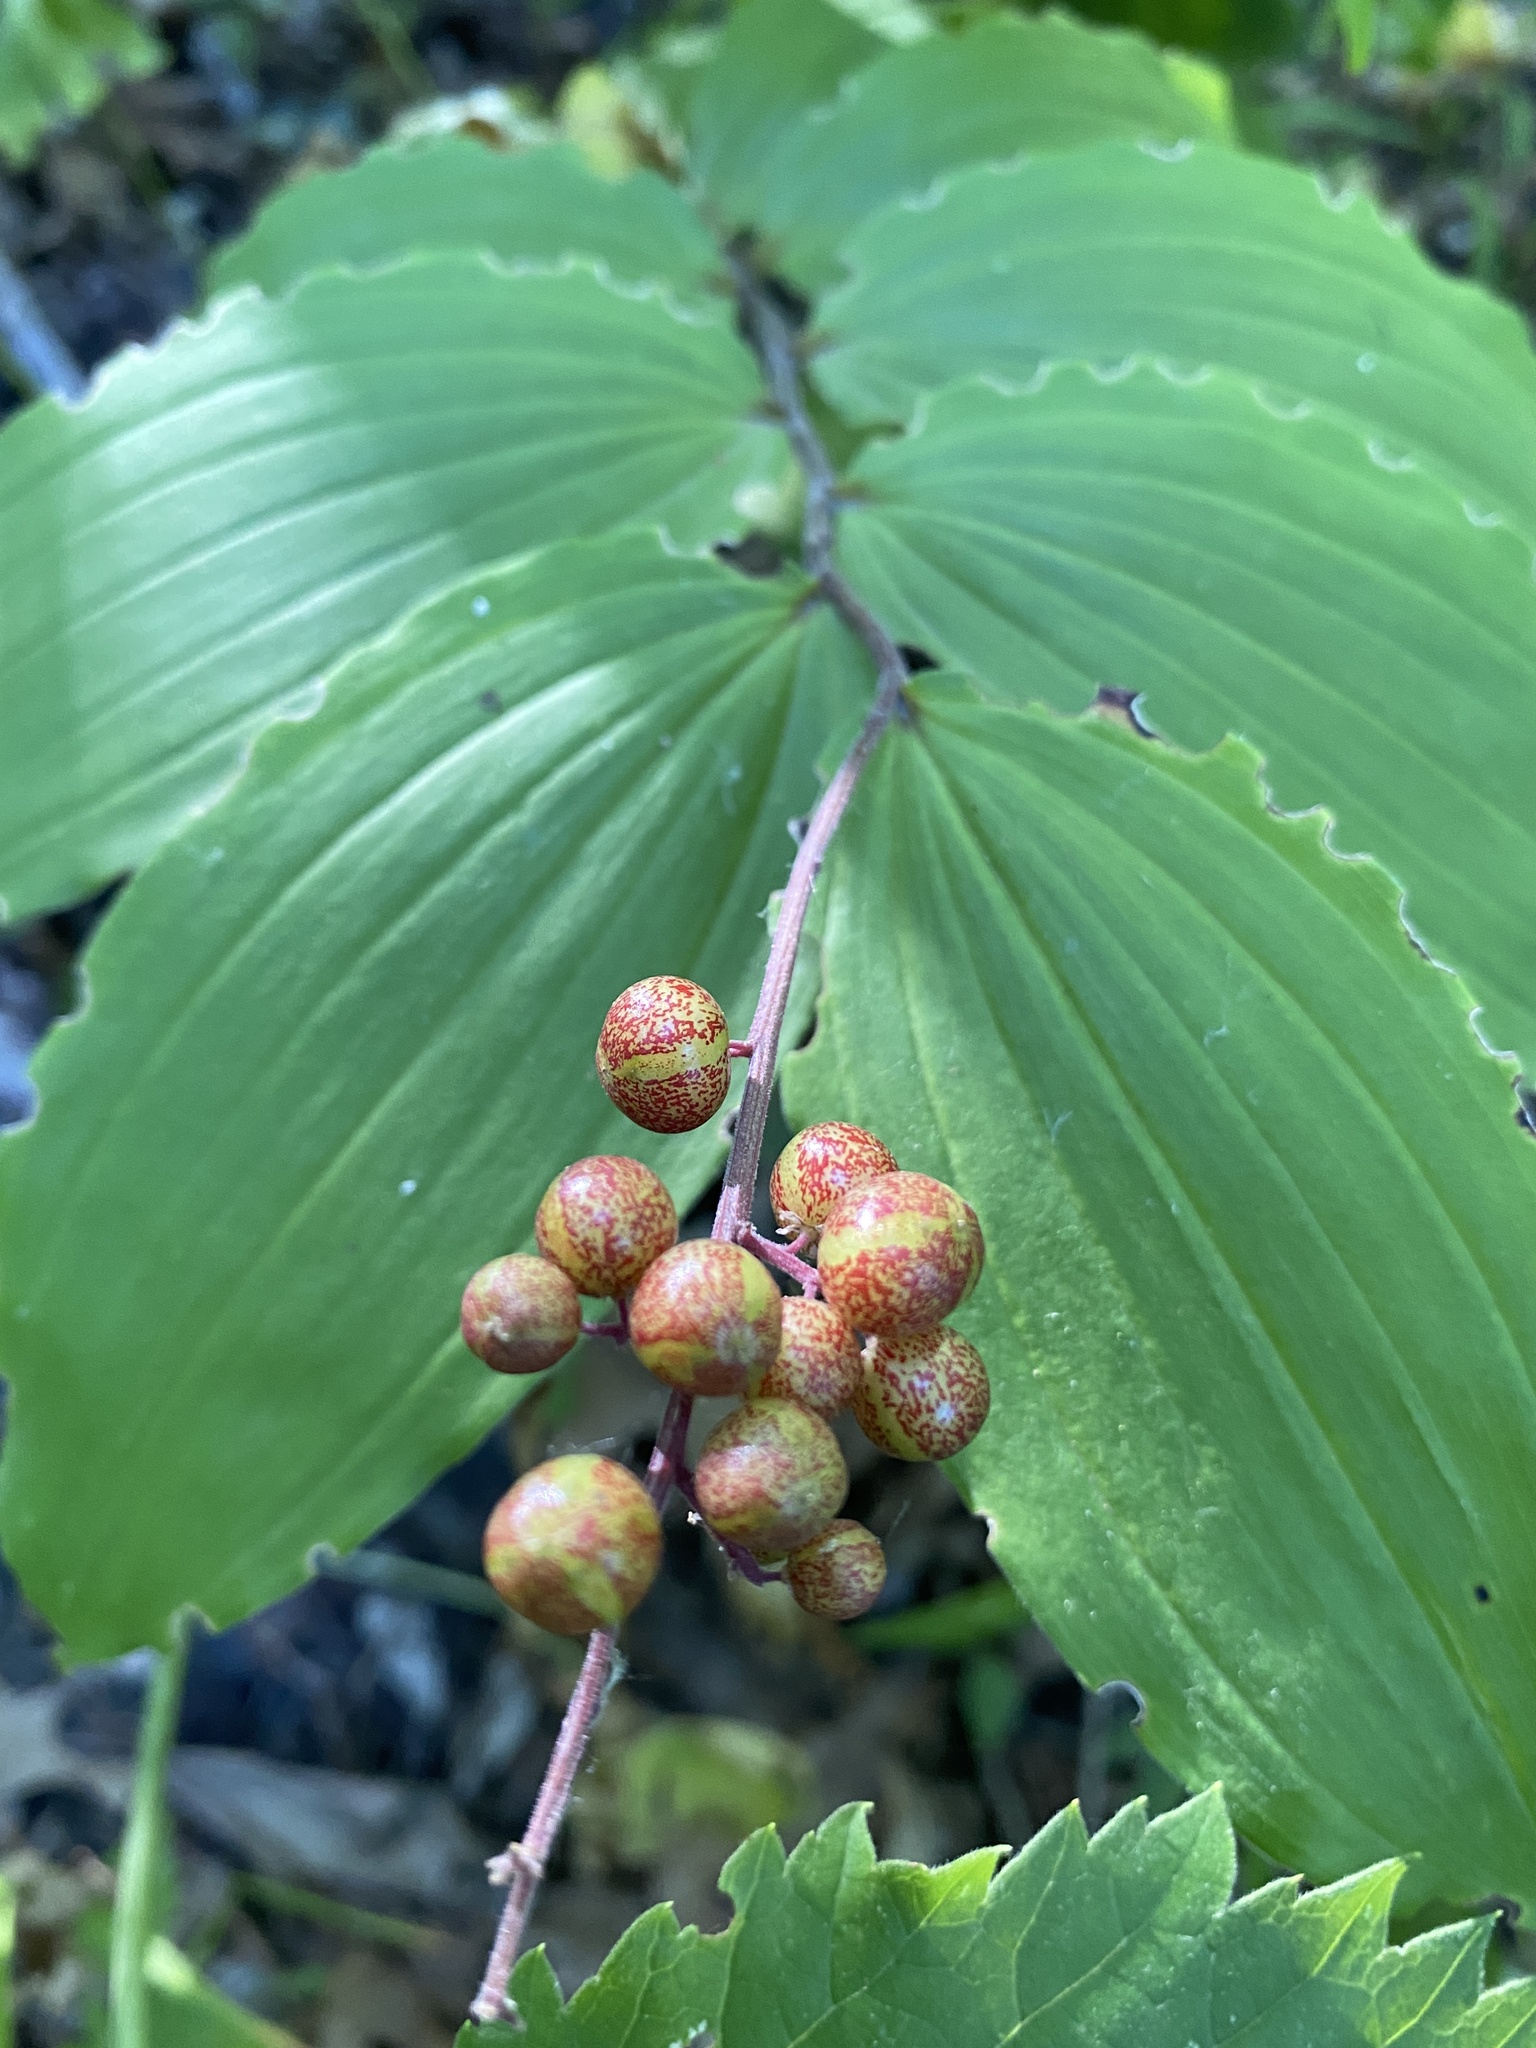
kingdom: Plantae
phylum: Tracheophyta
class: Liliopsida
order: Asparagales
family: Asparagaceae
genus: Maianthemum
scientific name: Maianthemum racemosum
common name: False spikenard
